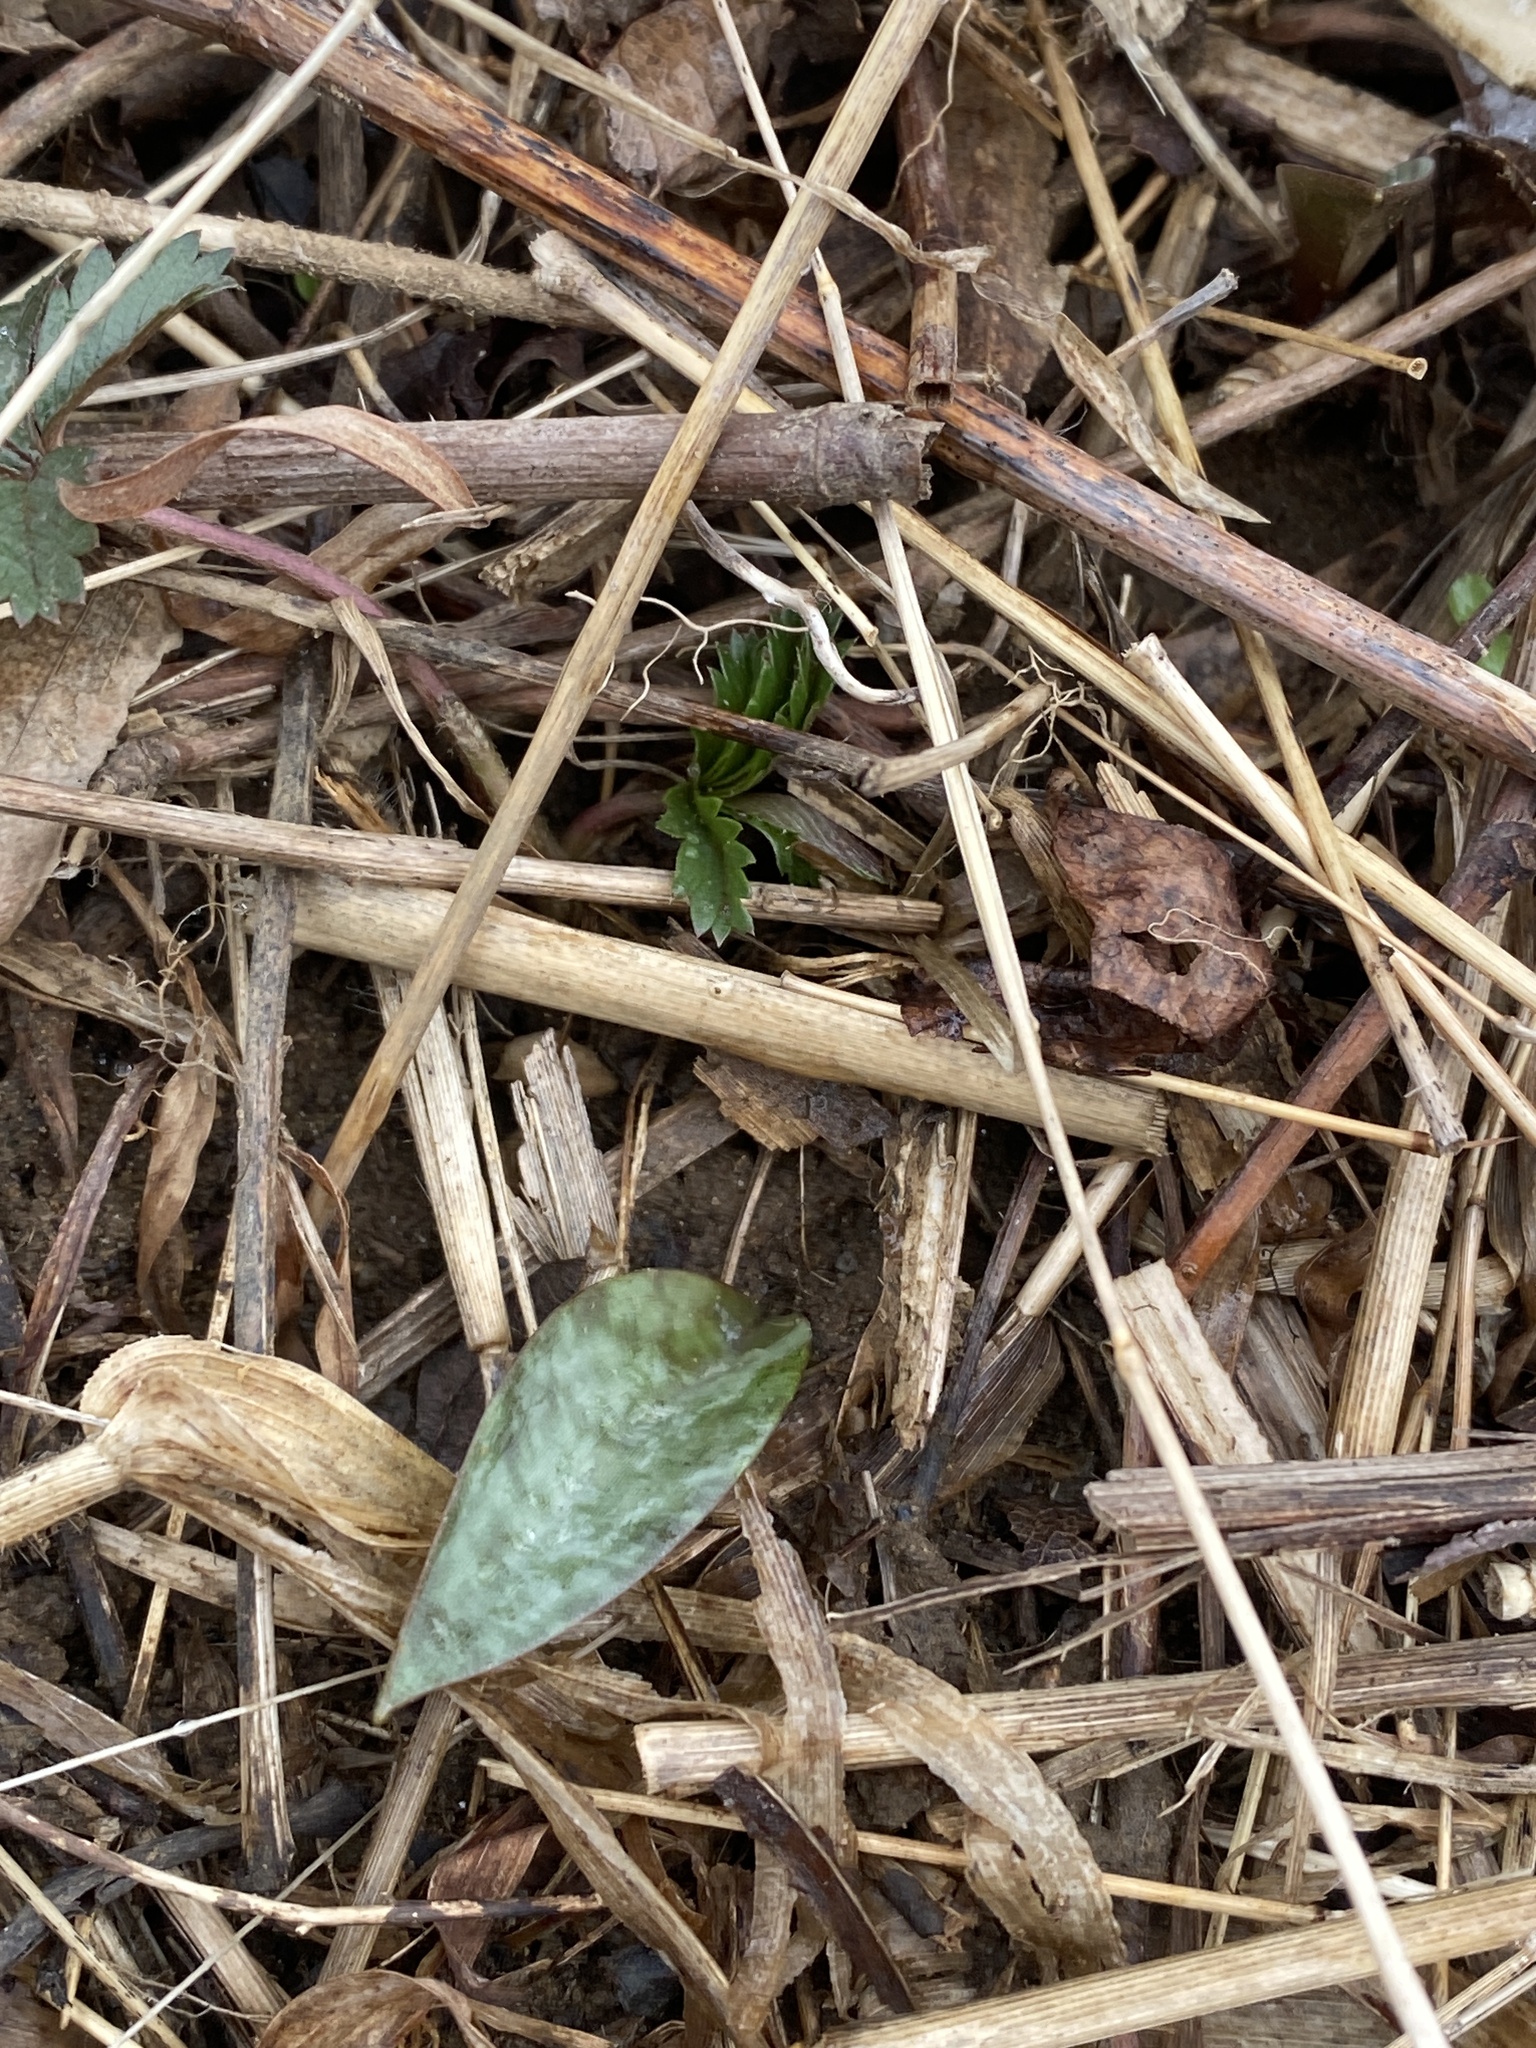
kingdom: Plantae
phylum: Tracheophyta
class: Liliopsida
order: Liliales
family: Liliaceae
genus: Erythronium
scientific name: Erythronium americanum
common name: Yellow adder's-tongue
